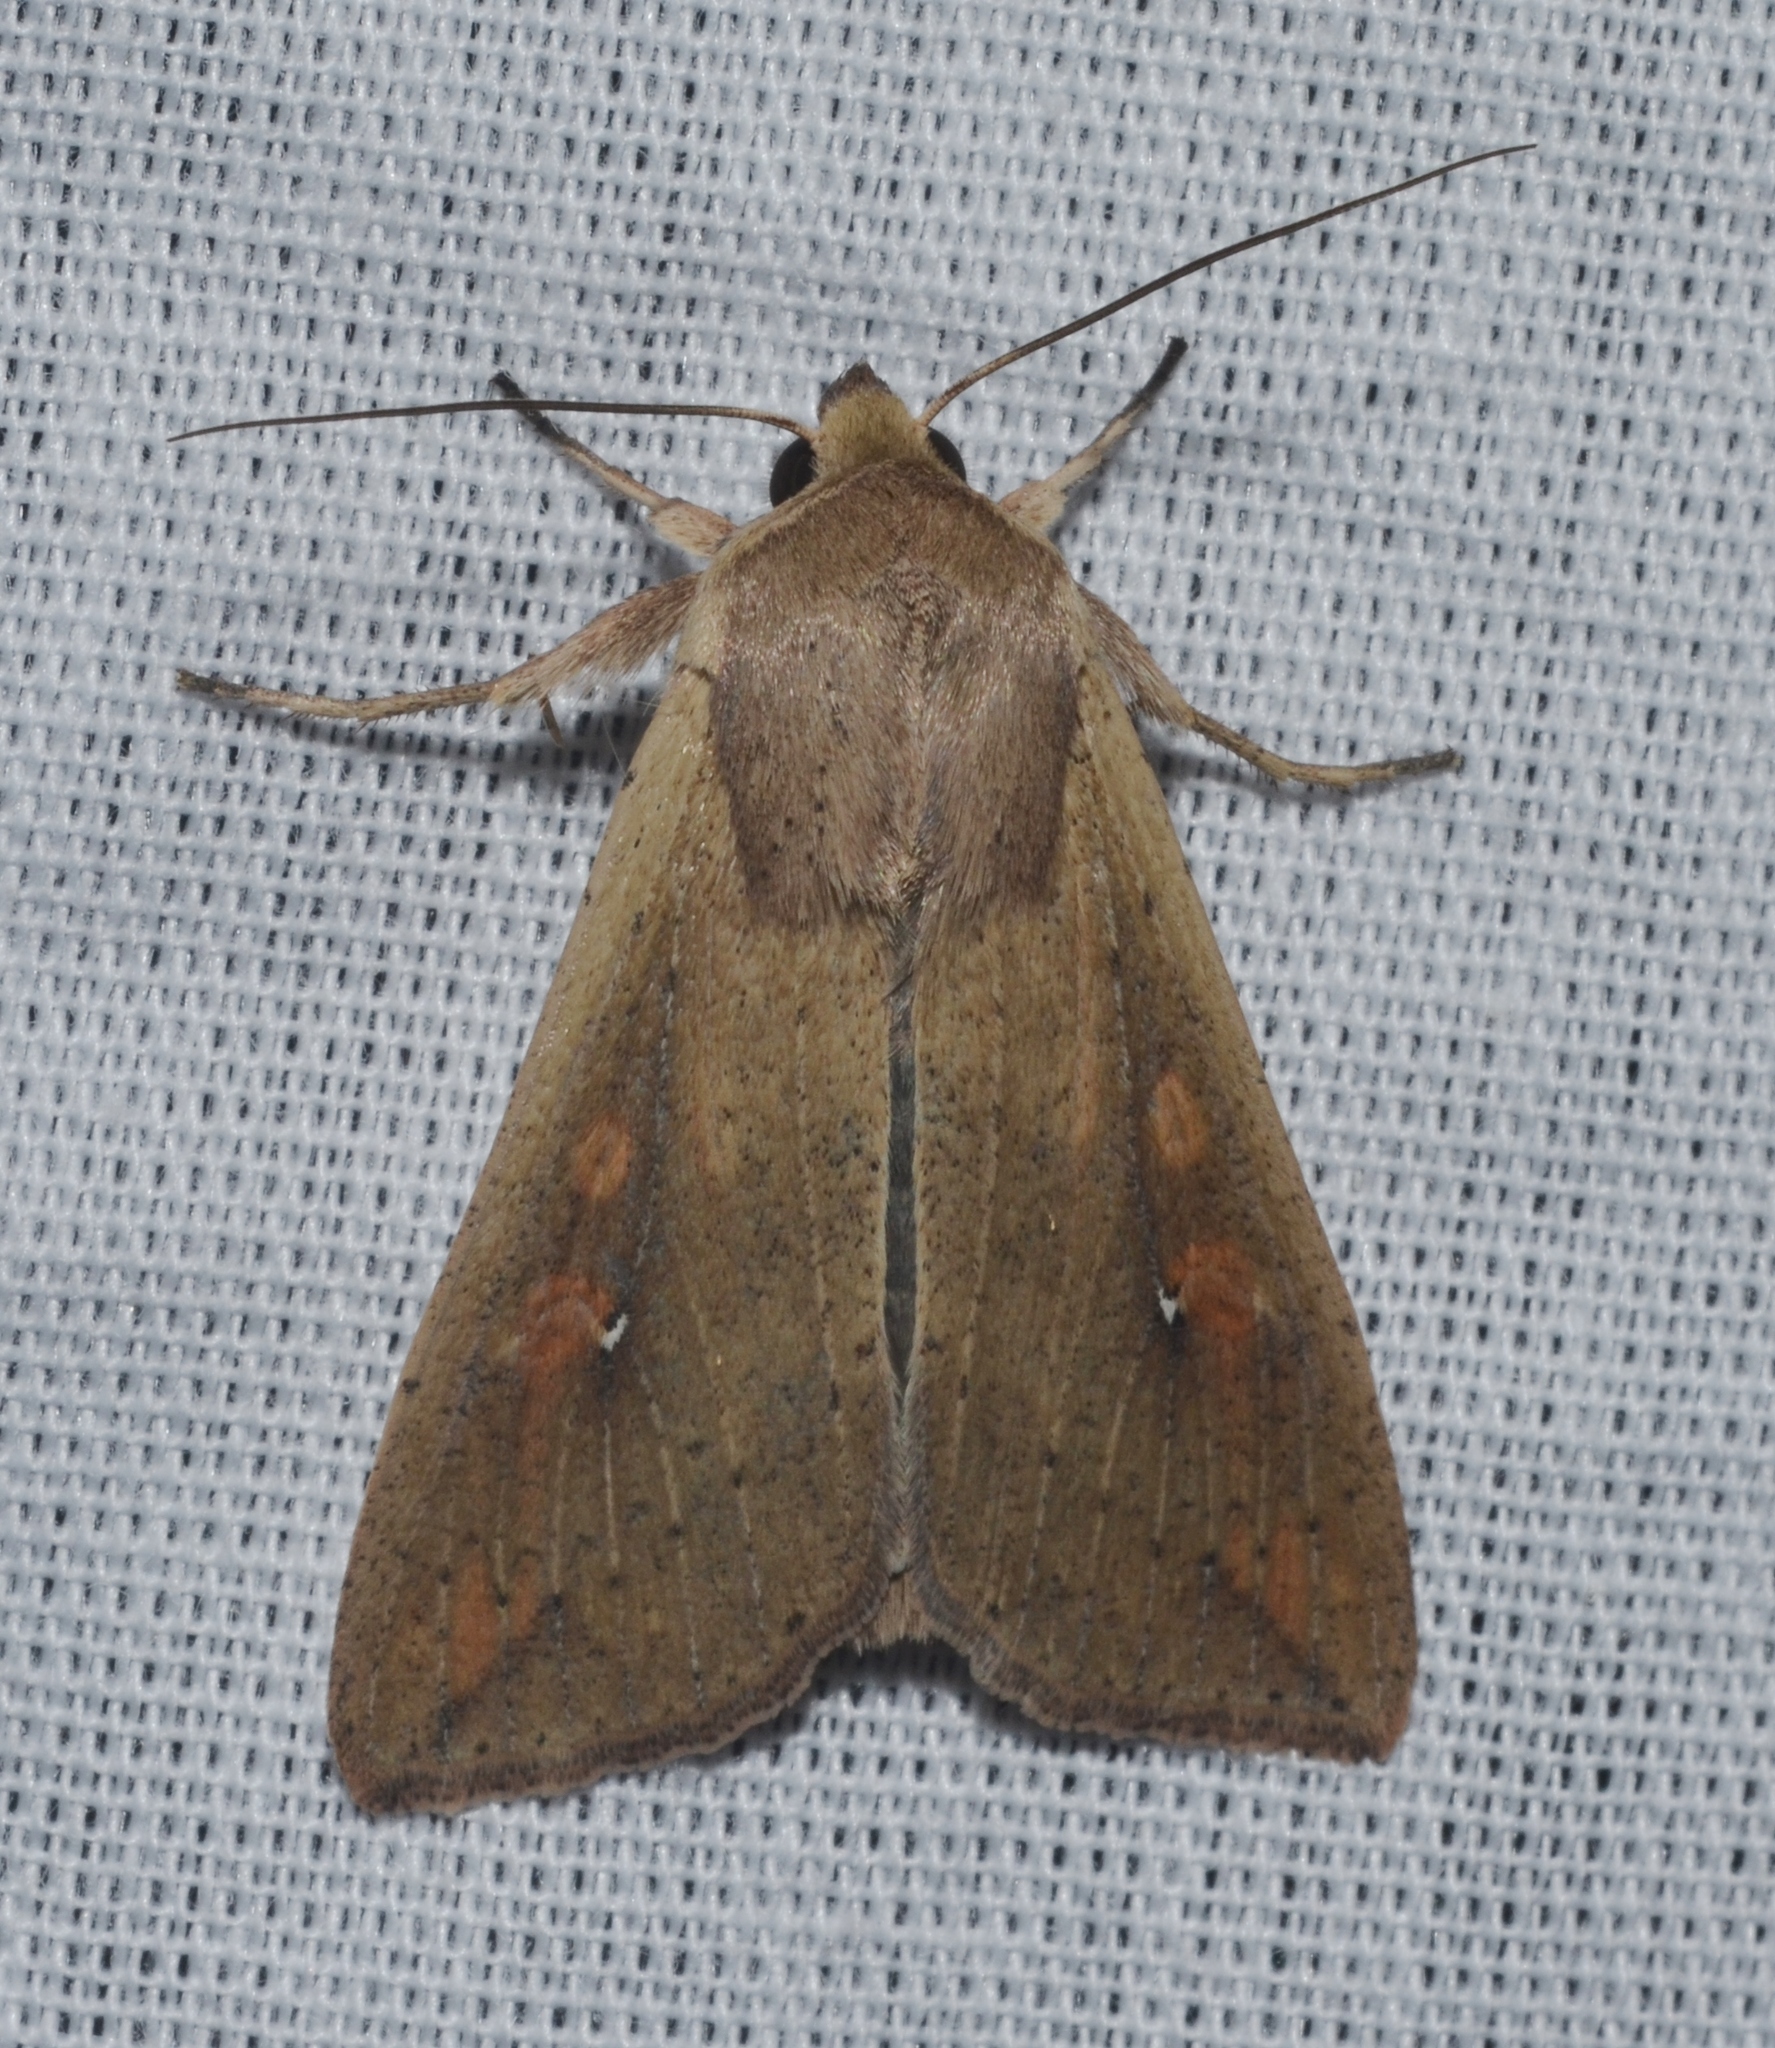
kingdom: Animalia
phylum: Arthropoda
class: Insecta
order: Lepidoptera
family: Noctuidae
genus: Mythimna
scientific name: Mythimna unipuncta
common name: White-speck
